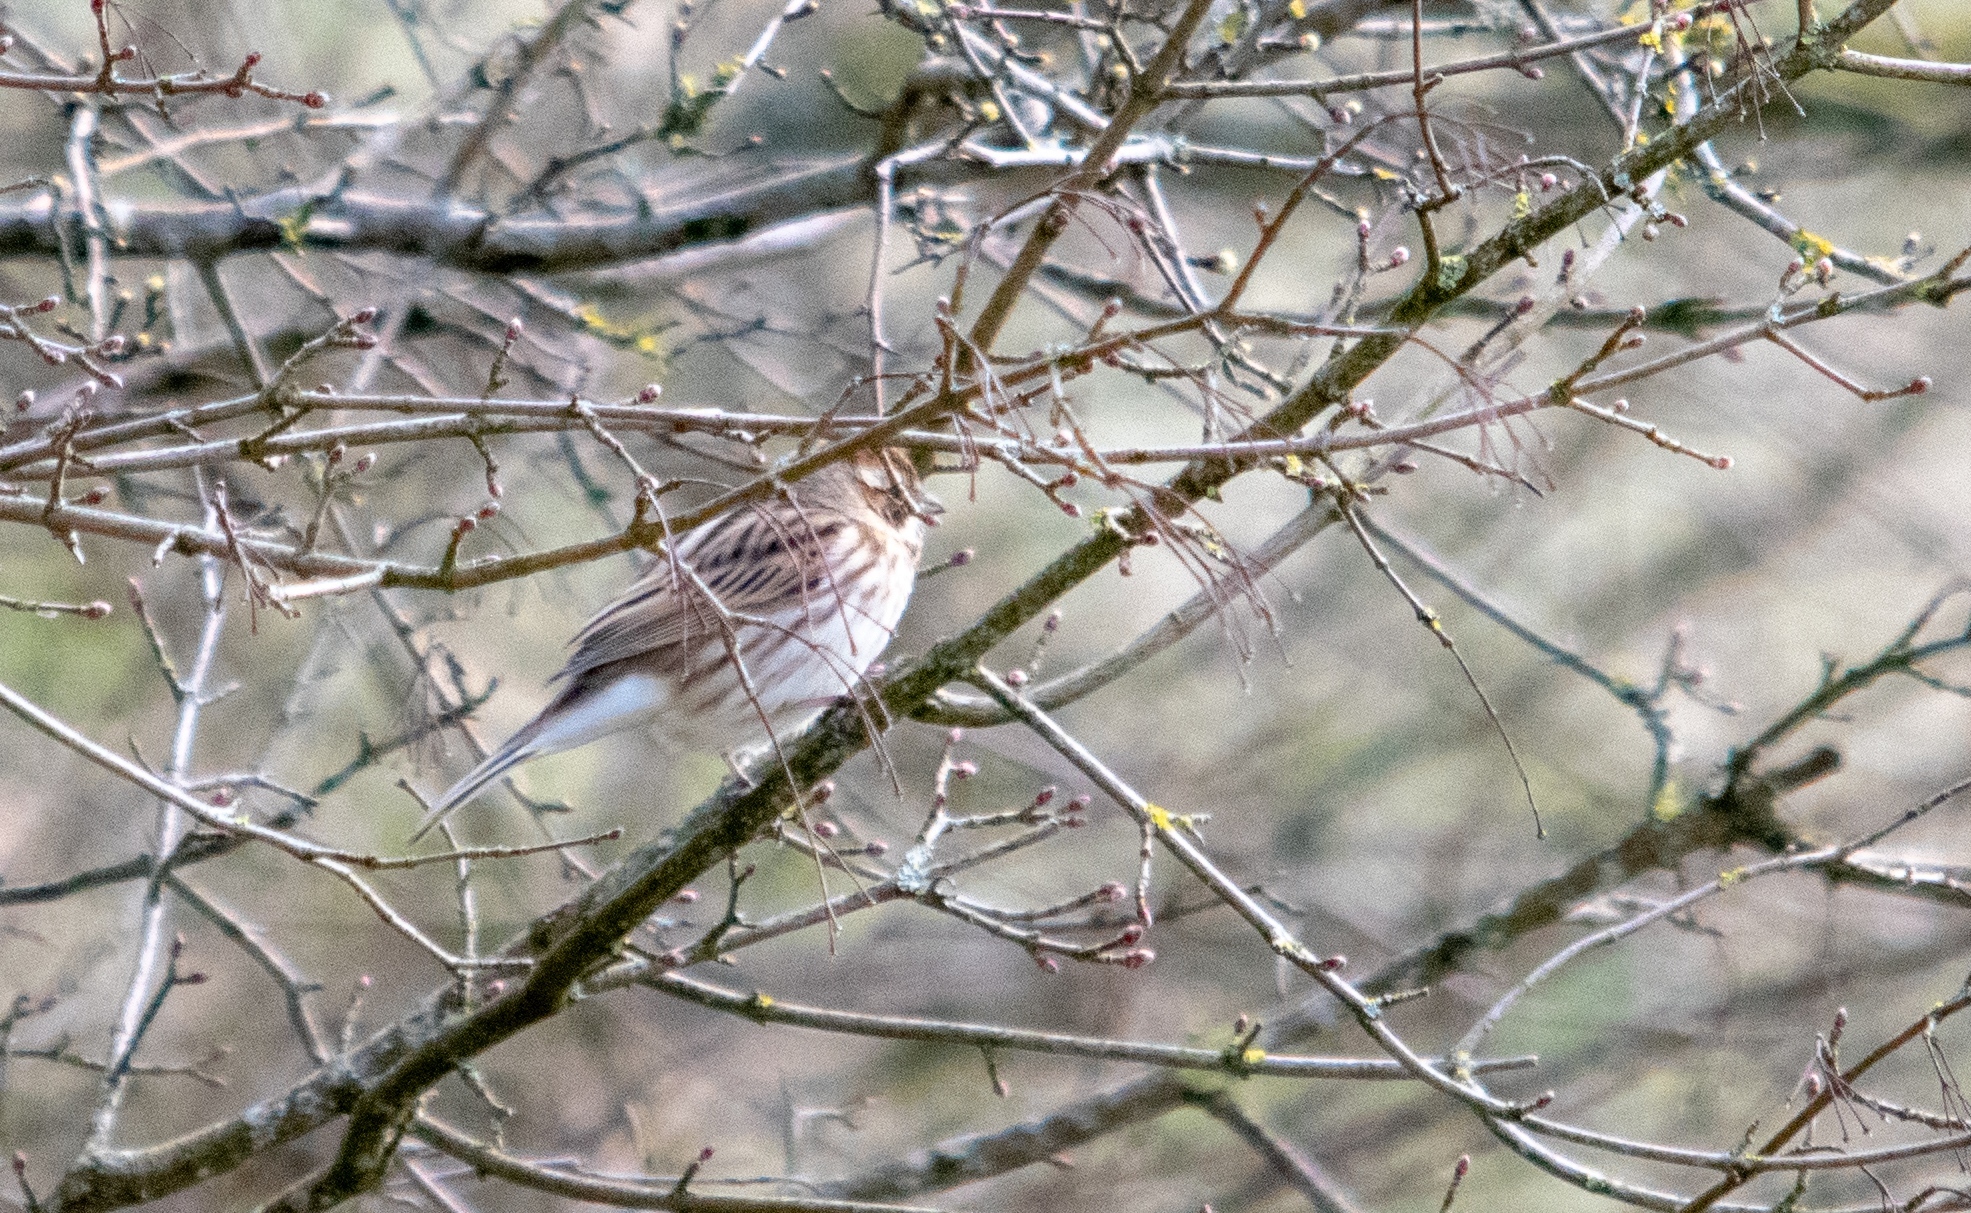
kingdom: Animalia
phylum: Chordata
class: Aves
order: Passeriformes
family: Emberizidae
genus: Emberiza
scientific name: Emberiza schoeniclus
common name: Reed bunting
